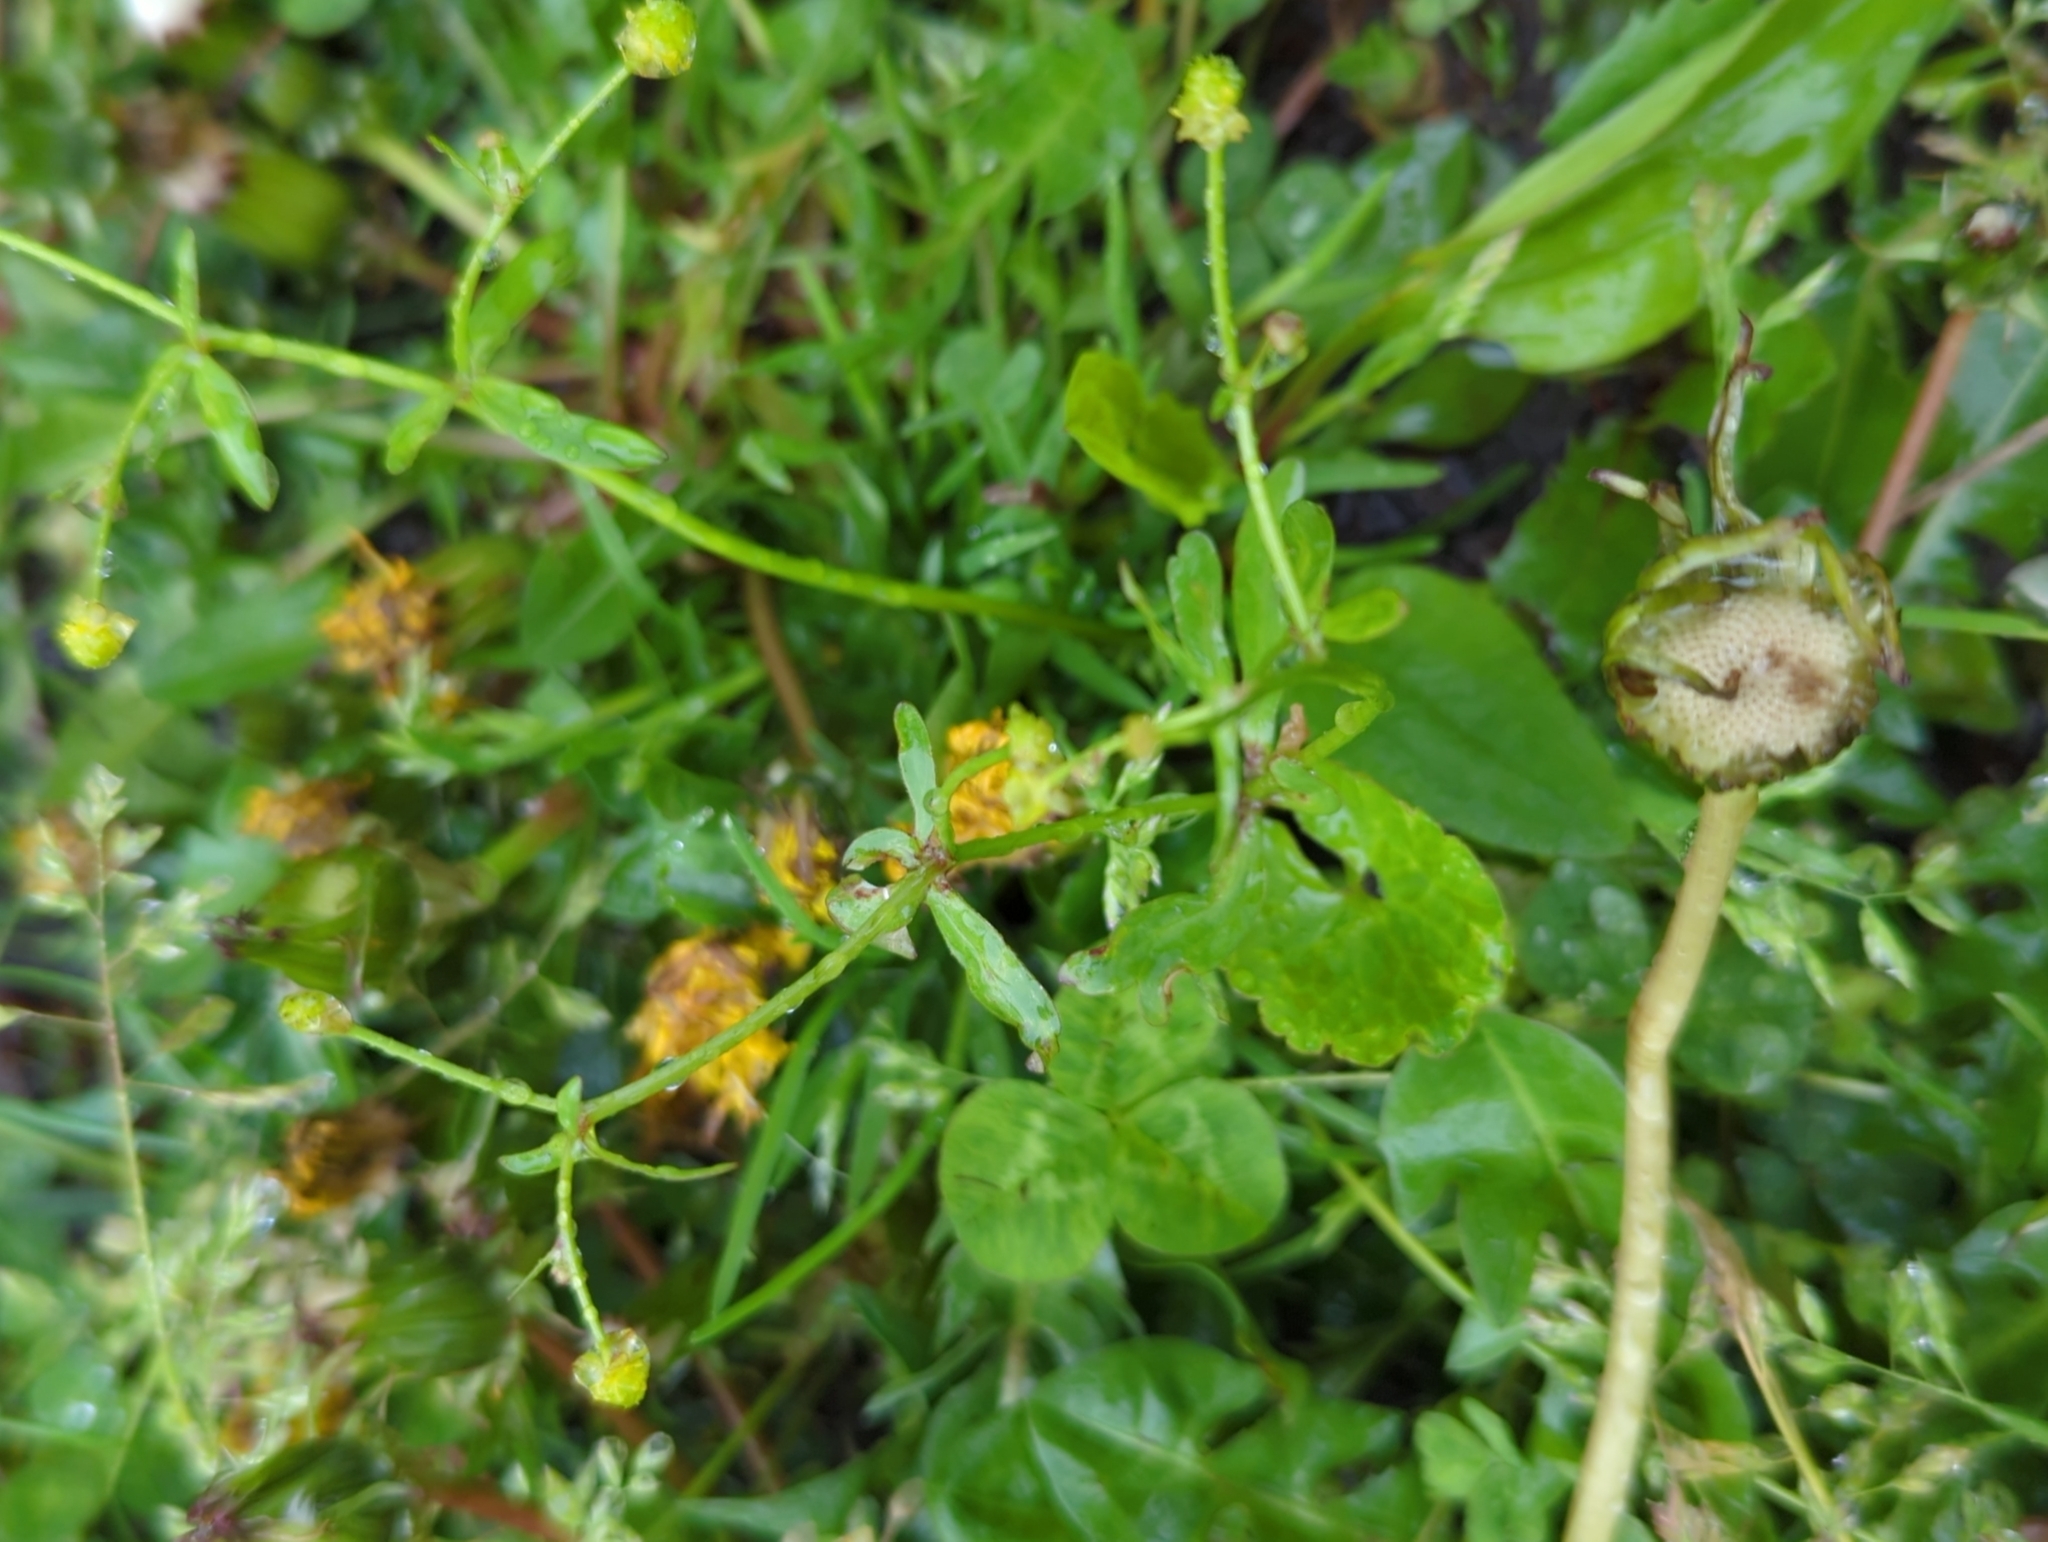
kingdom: Plantae
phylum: Tracheophyta
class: Magnoliopsida
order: Ranunculales
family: Ranunculaceae
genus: Ranunculus
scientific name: Ranunculus abortivus
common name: Early wood buttercup
